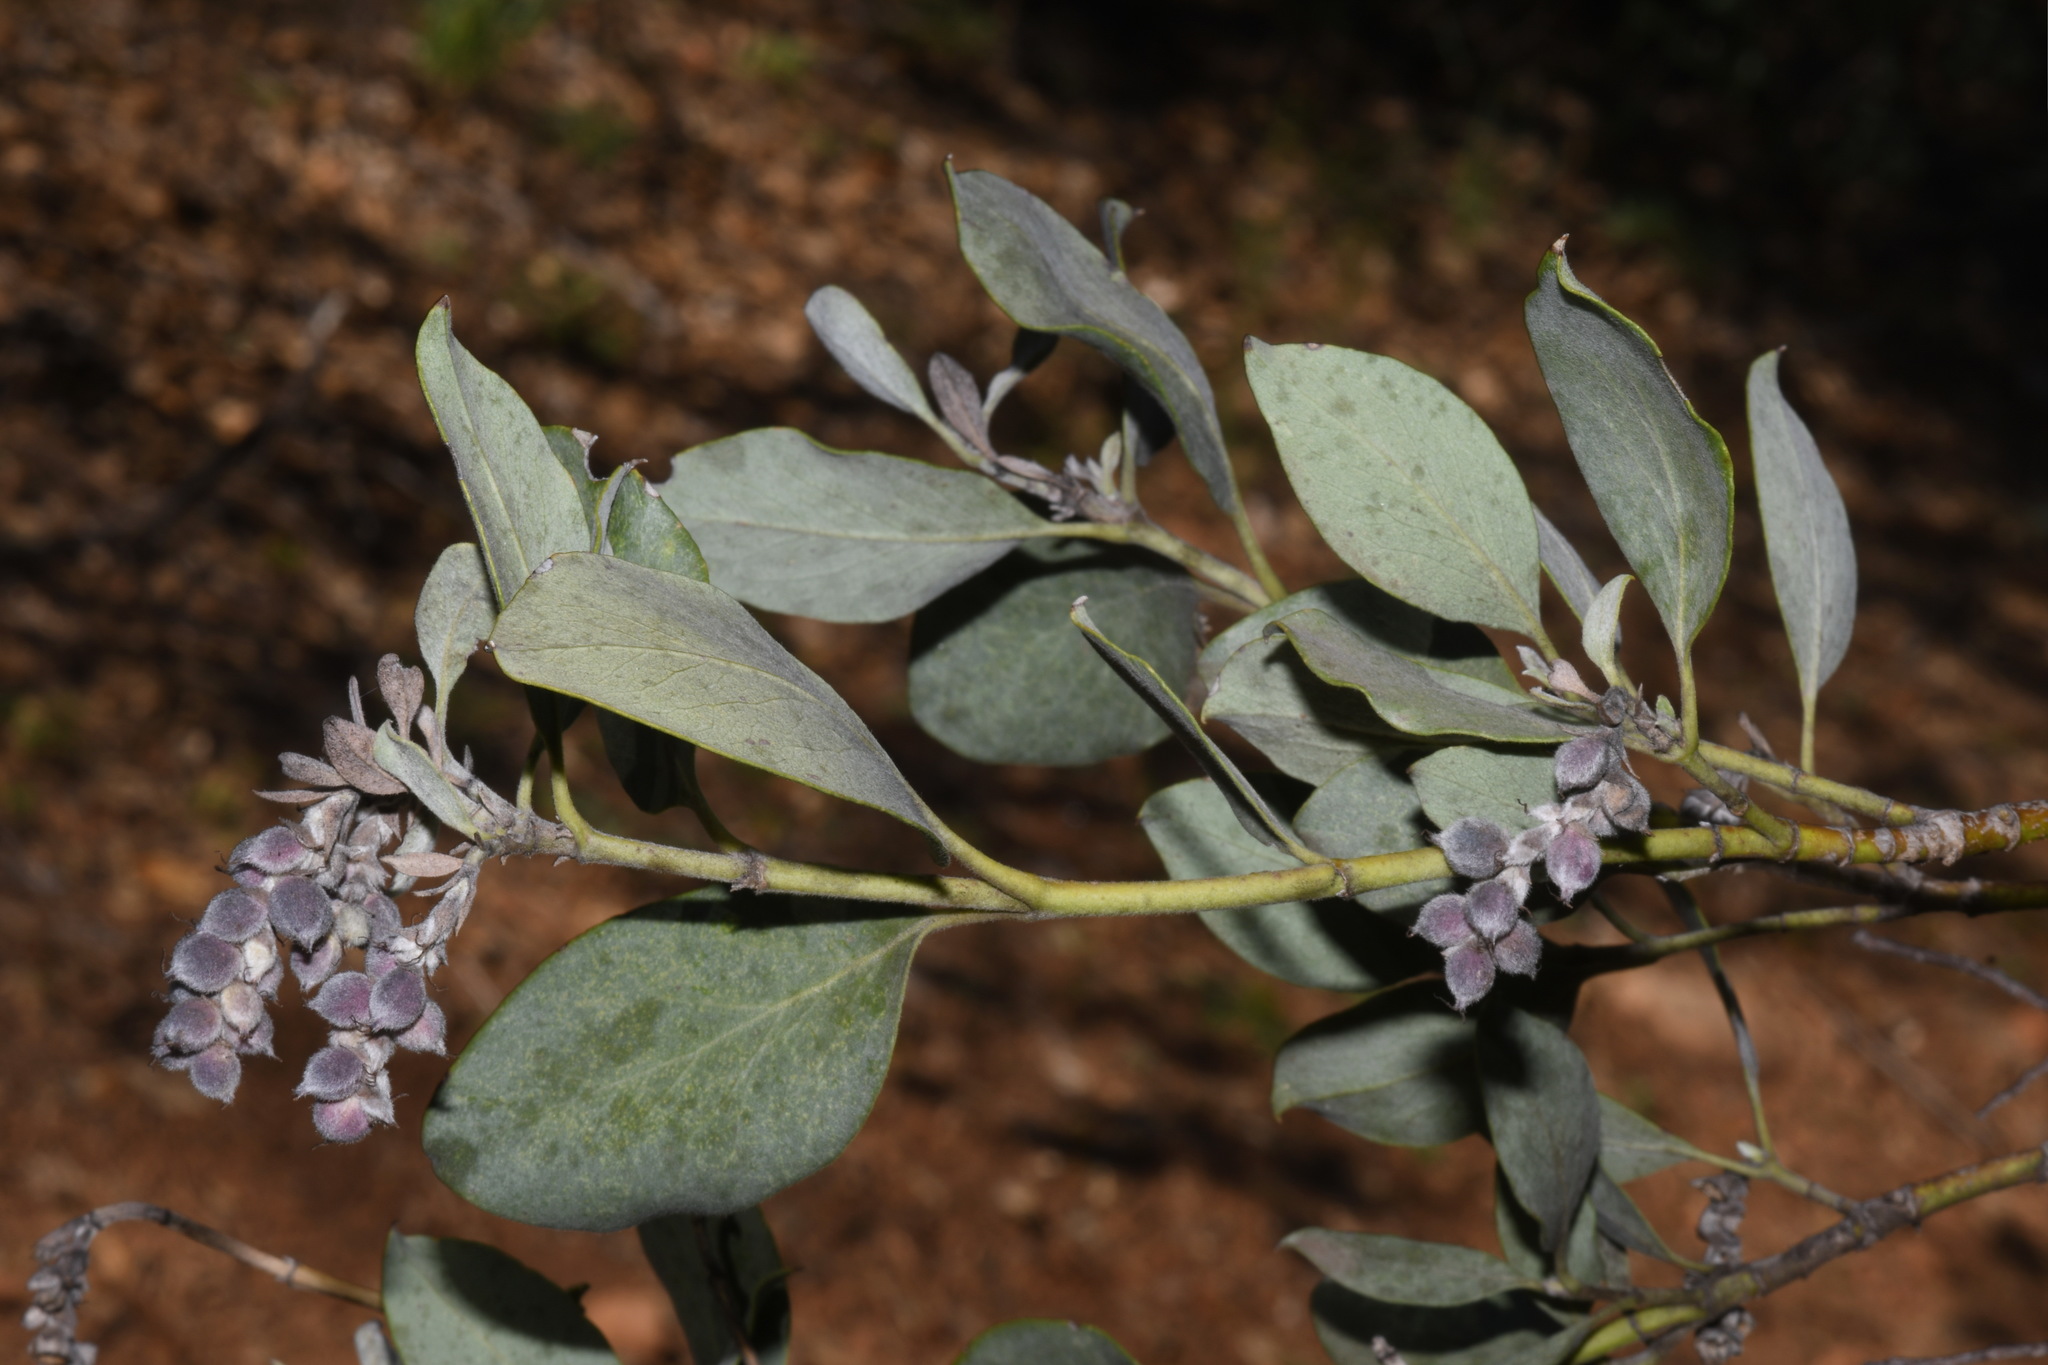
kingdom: Plantae
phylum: Tracheophyta
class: Magnoliopsida
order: Garryales
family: Garryaceae
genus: Garrya
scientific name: Garrya flavescens
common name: Ashy silk-tassel
